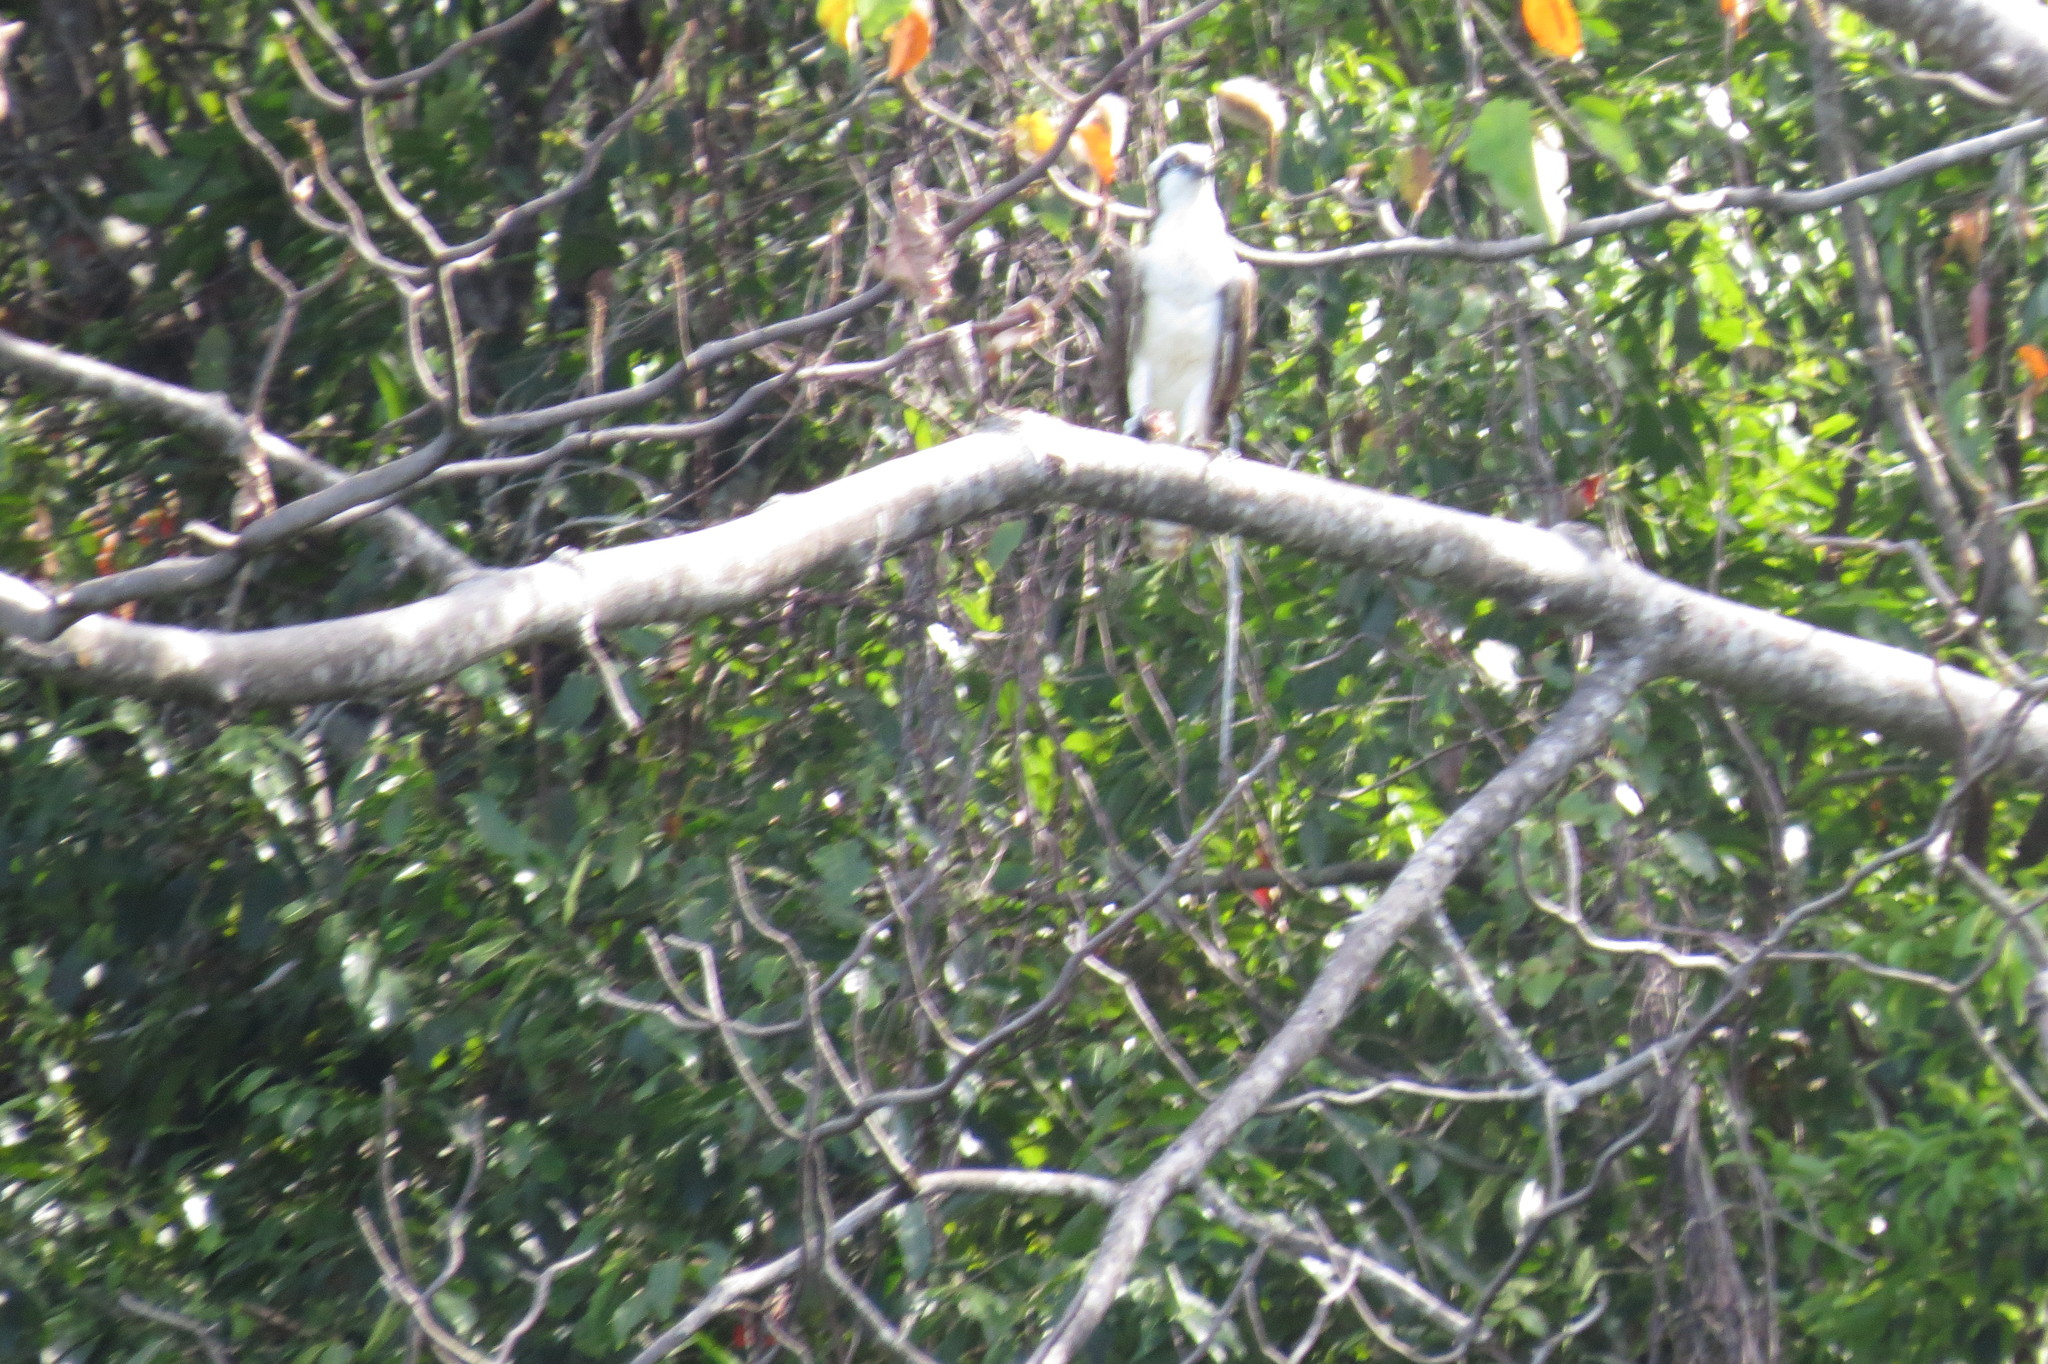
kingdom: Animalia
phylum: Chordata
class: Aves
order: Accipitriformes
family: Pandionidae
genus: Pandion
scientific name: Pandion haliaetus
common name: Osprey
